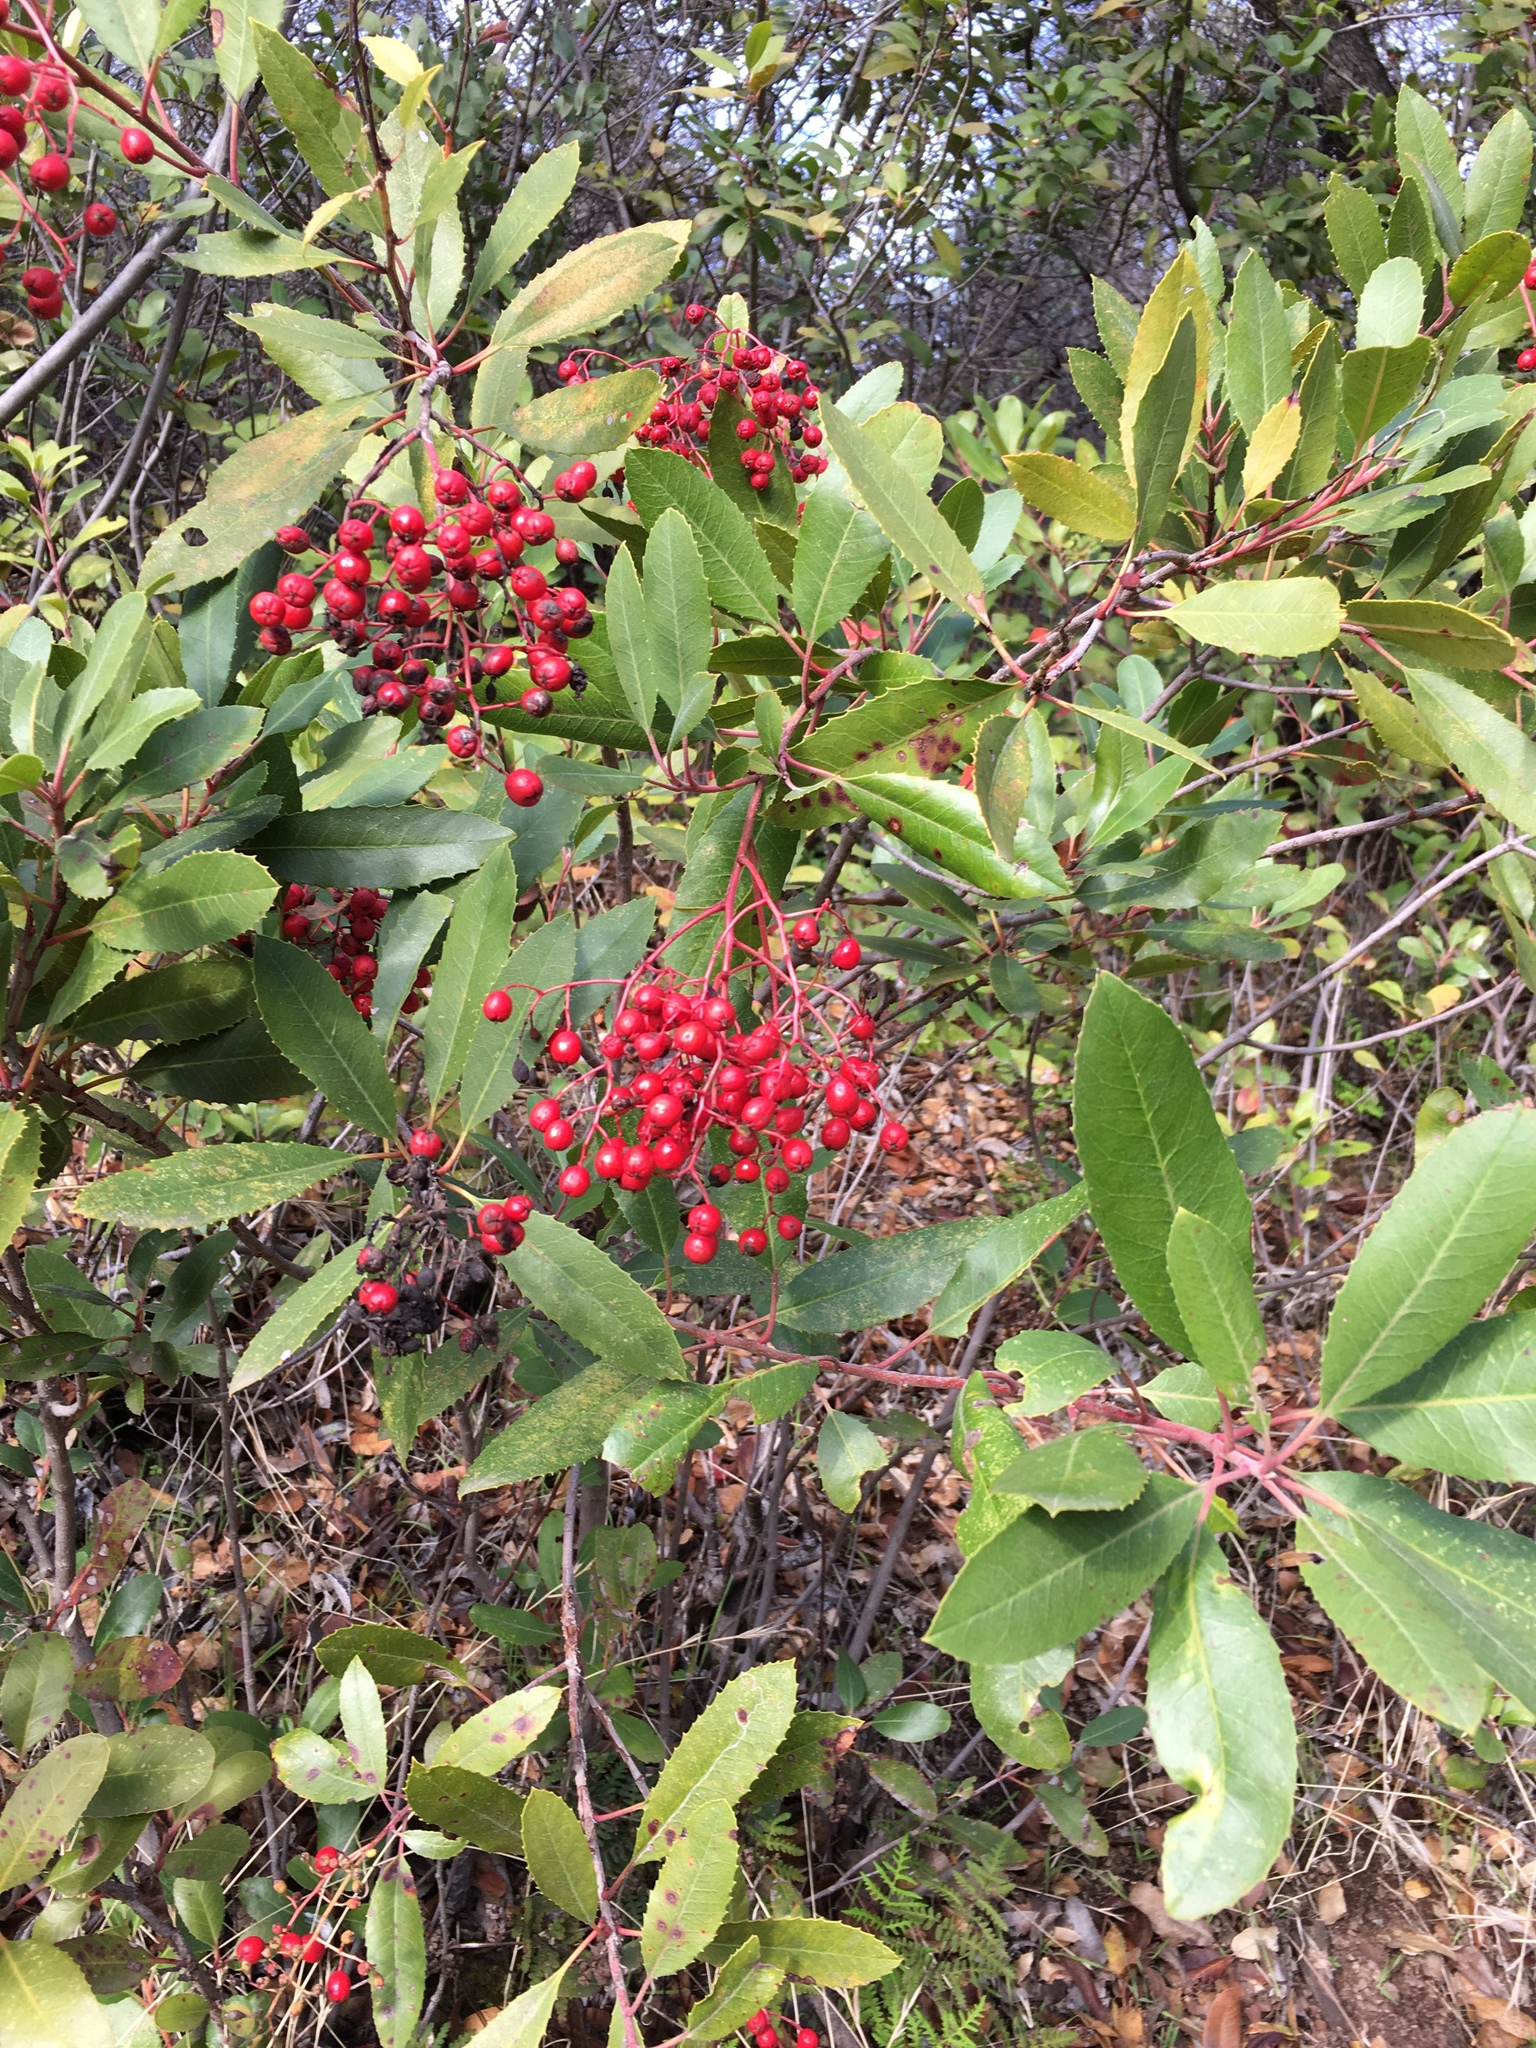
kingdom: Plantae
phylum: Tracheophyta
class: Magnoliopsida
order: Rosales
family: Rosaceae
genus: Heteromeles
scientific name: Heteromeles arbutifolia
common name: California-holly
